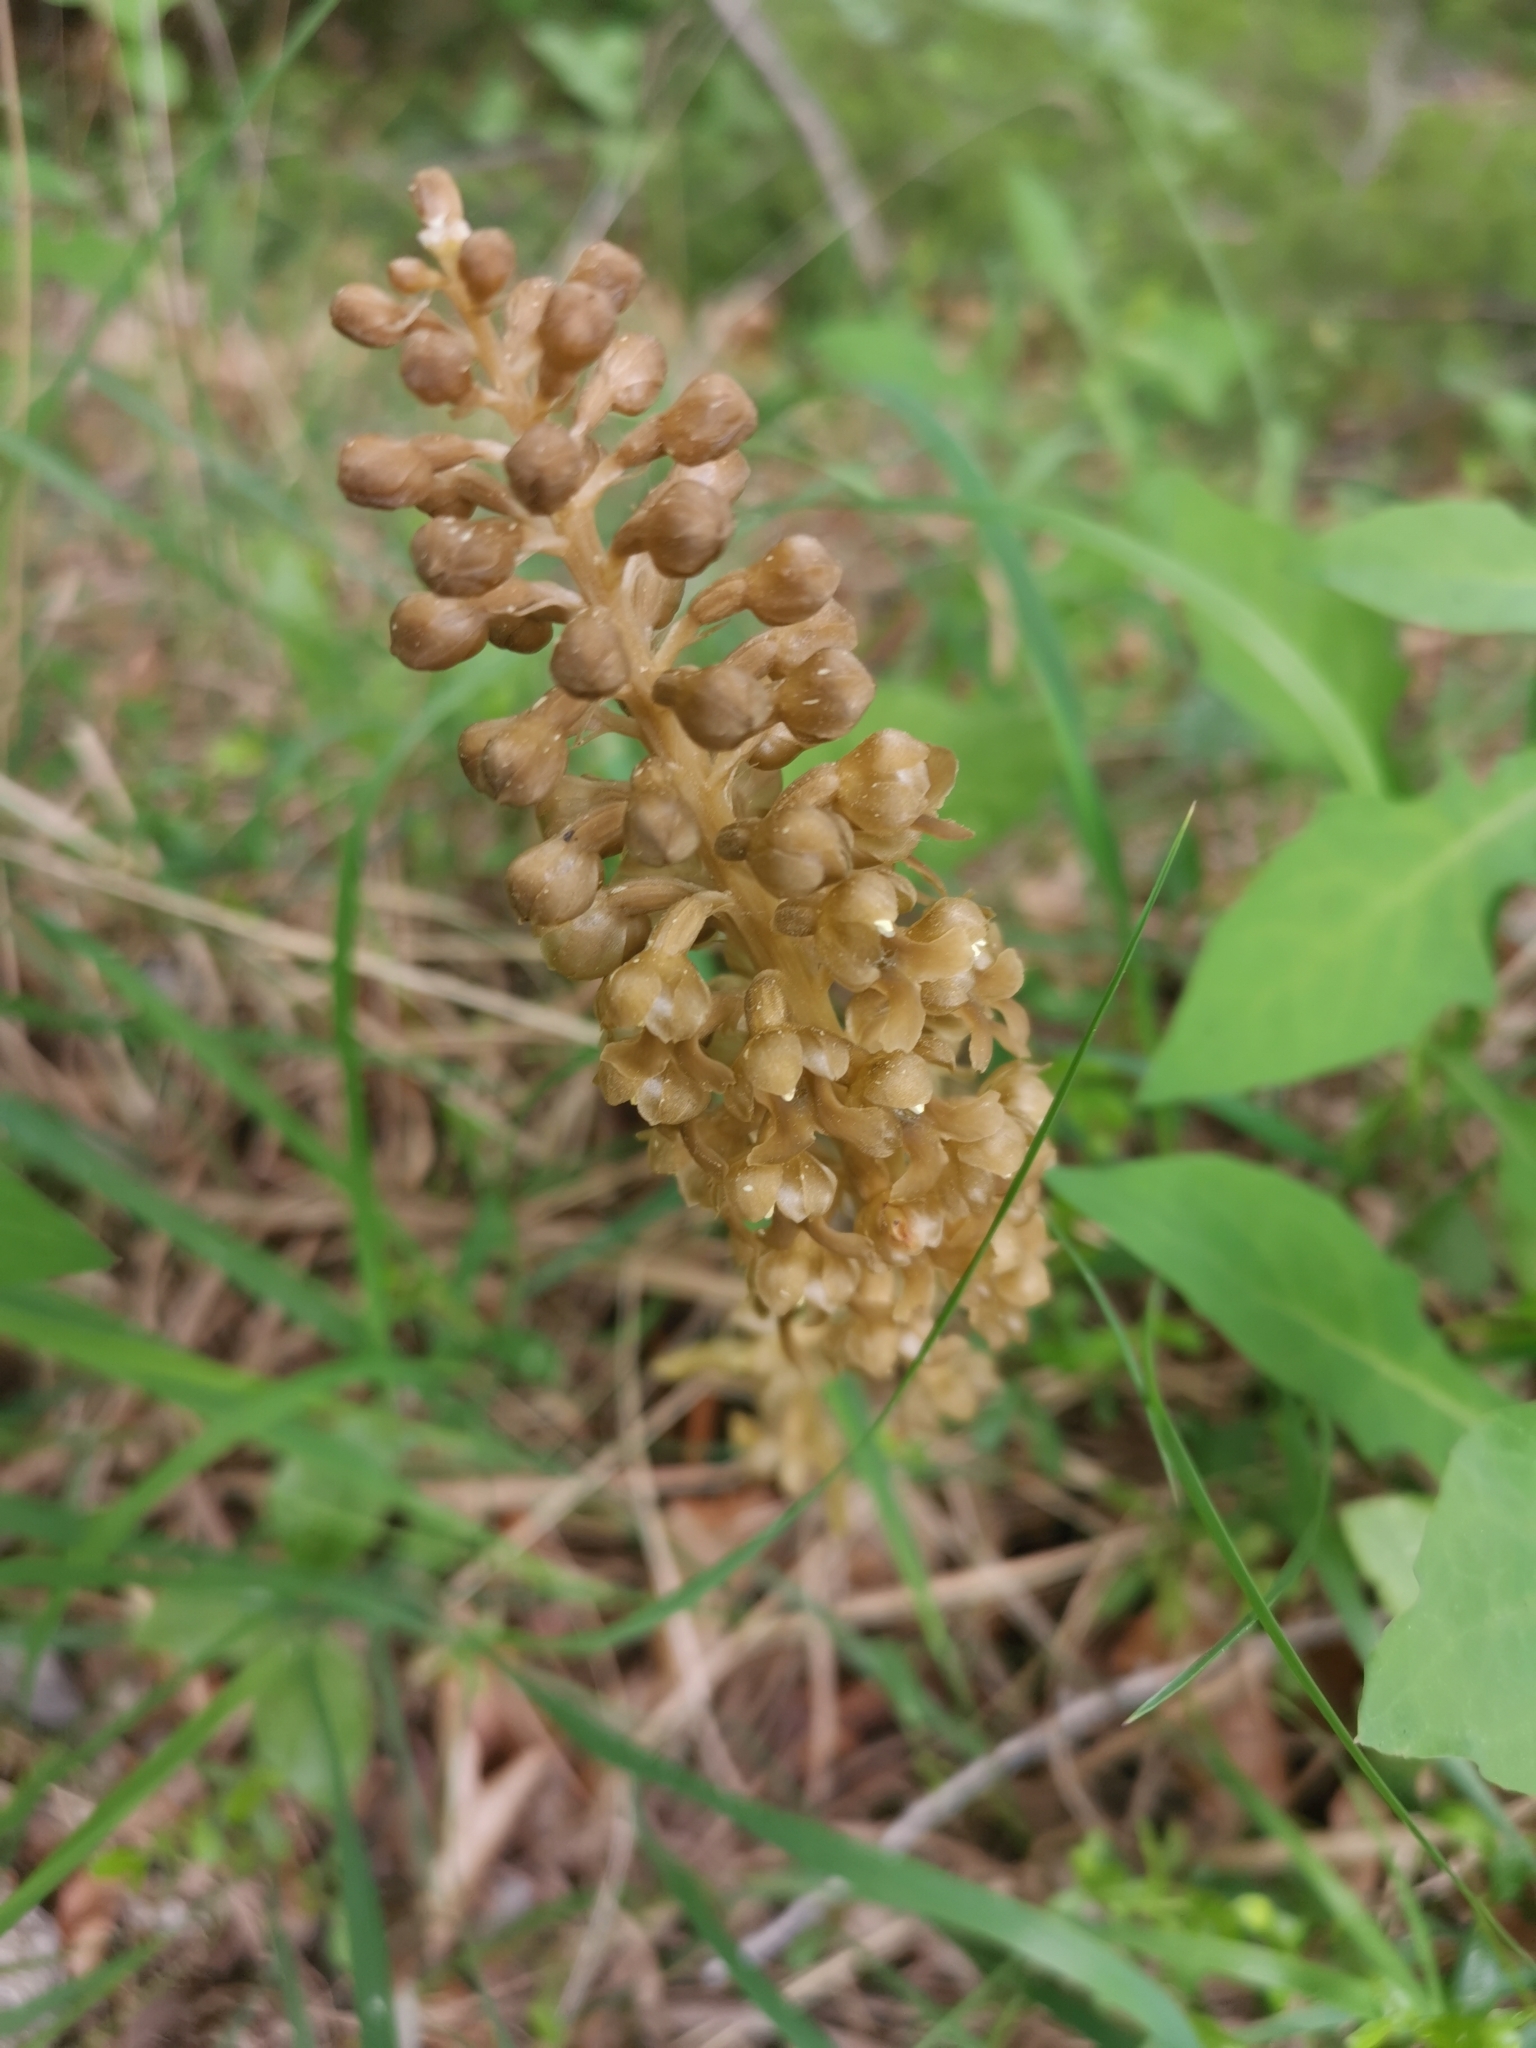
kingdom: Plantae
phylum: Tracheophyta
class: Liliopsida
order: Asparagales
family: Orchidaceae
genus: Neottia
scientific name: Neottia nidus-avis
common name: Bird's-nest orchid
